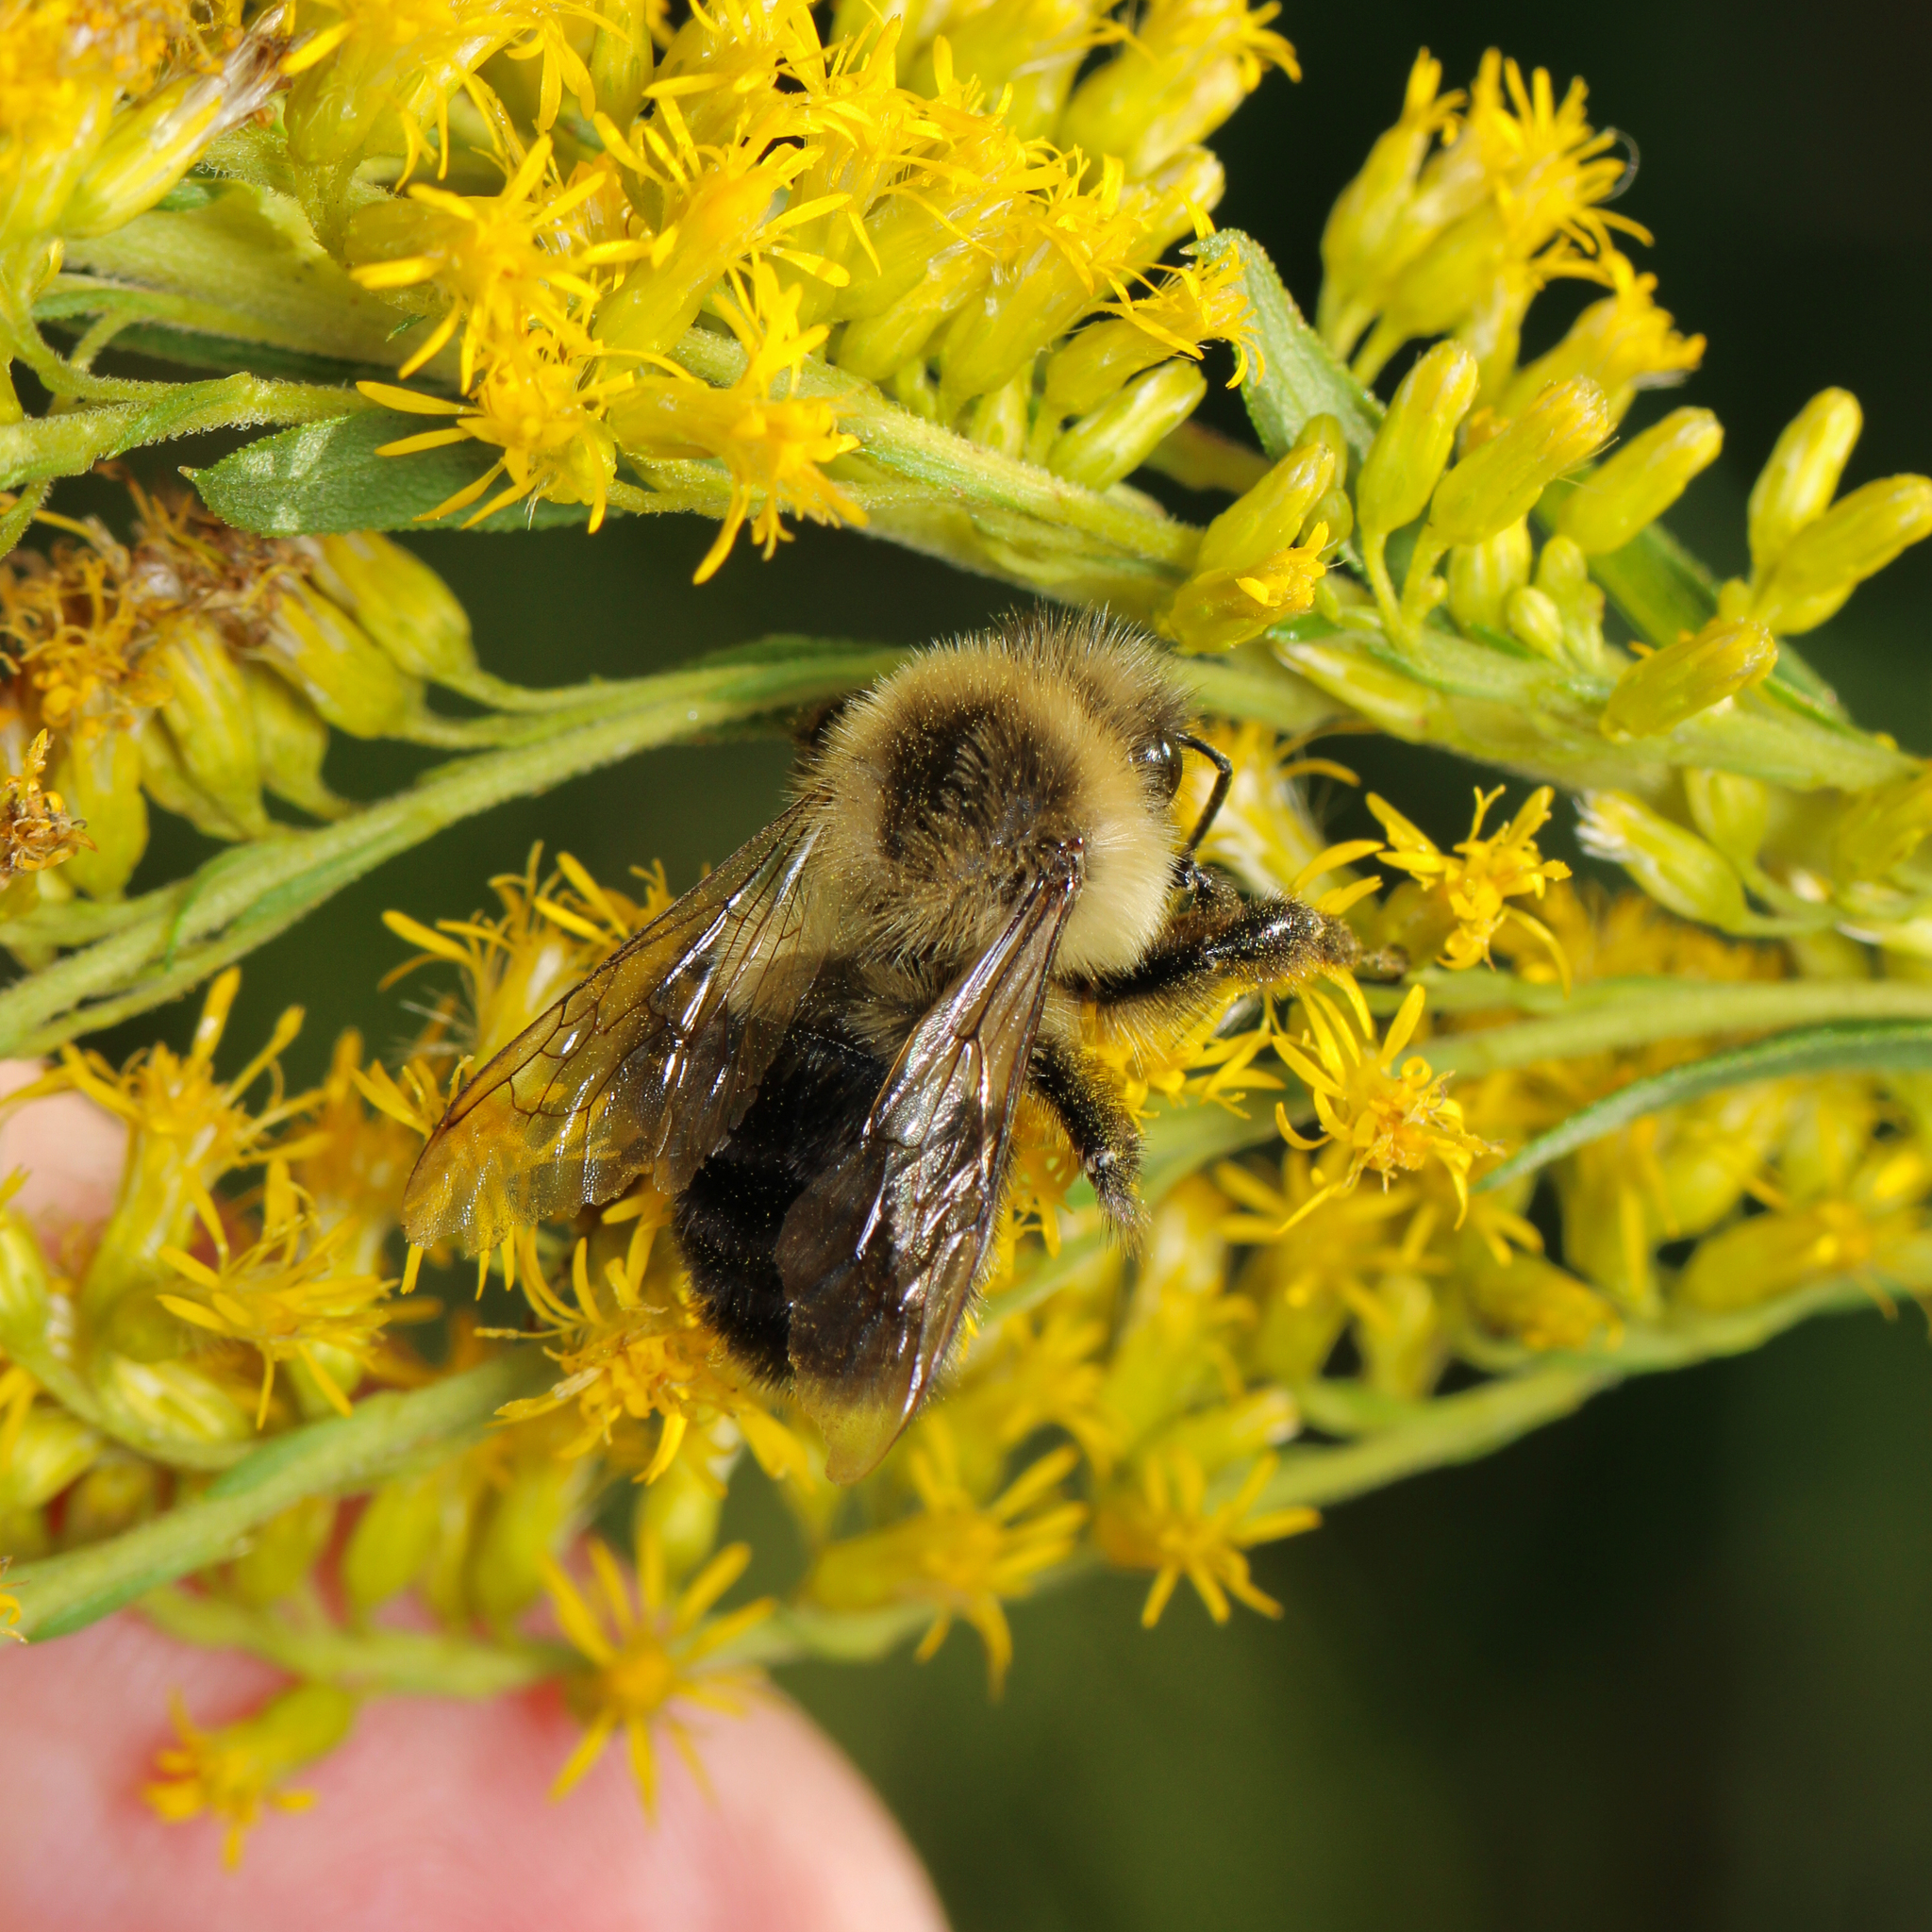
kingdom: Animalia
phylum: Arthropoda
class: Insecta
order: Hymenoptera
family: Apidae
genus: Bombus
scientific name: Bombus impatiens
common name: Common eastern bumble bee
